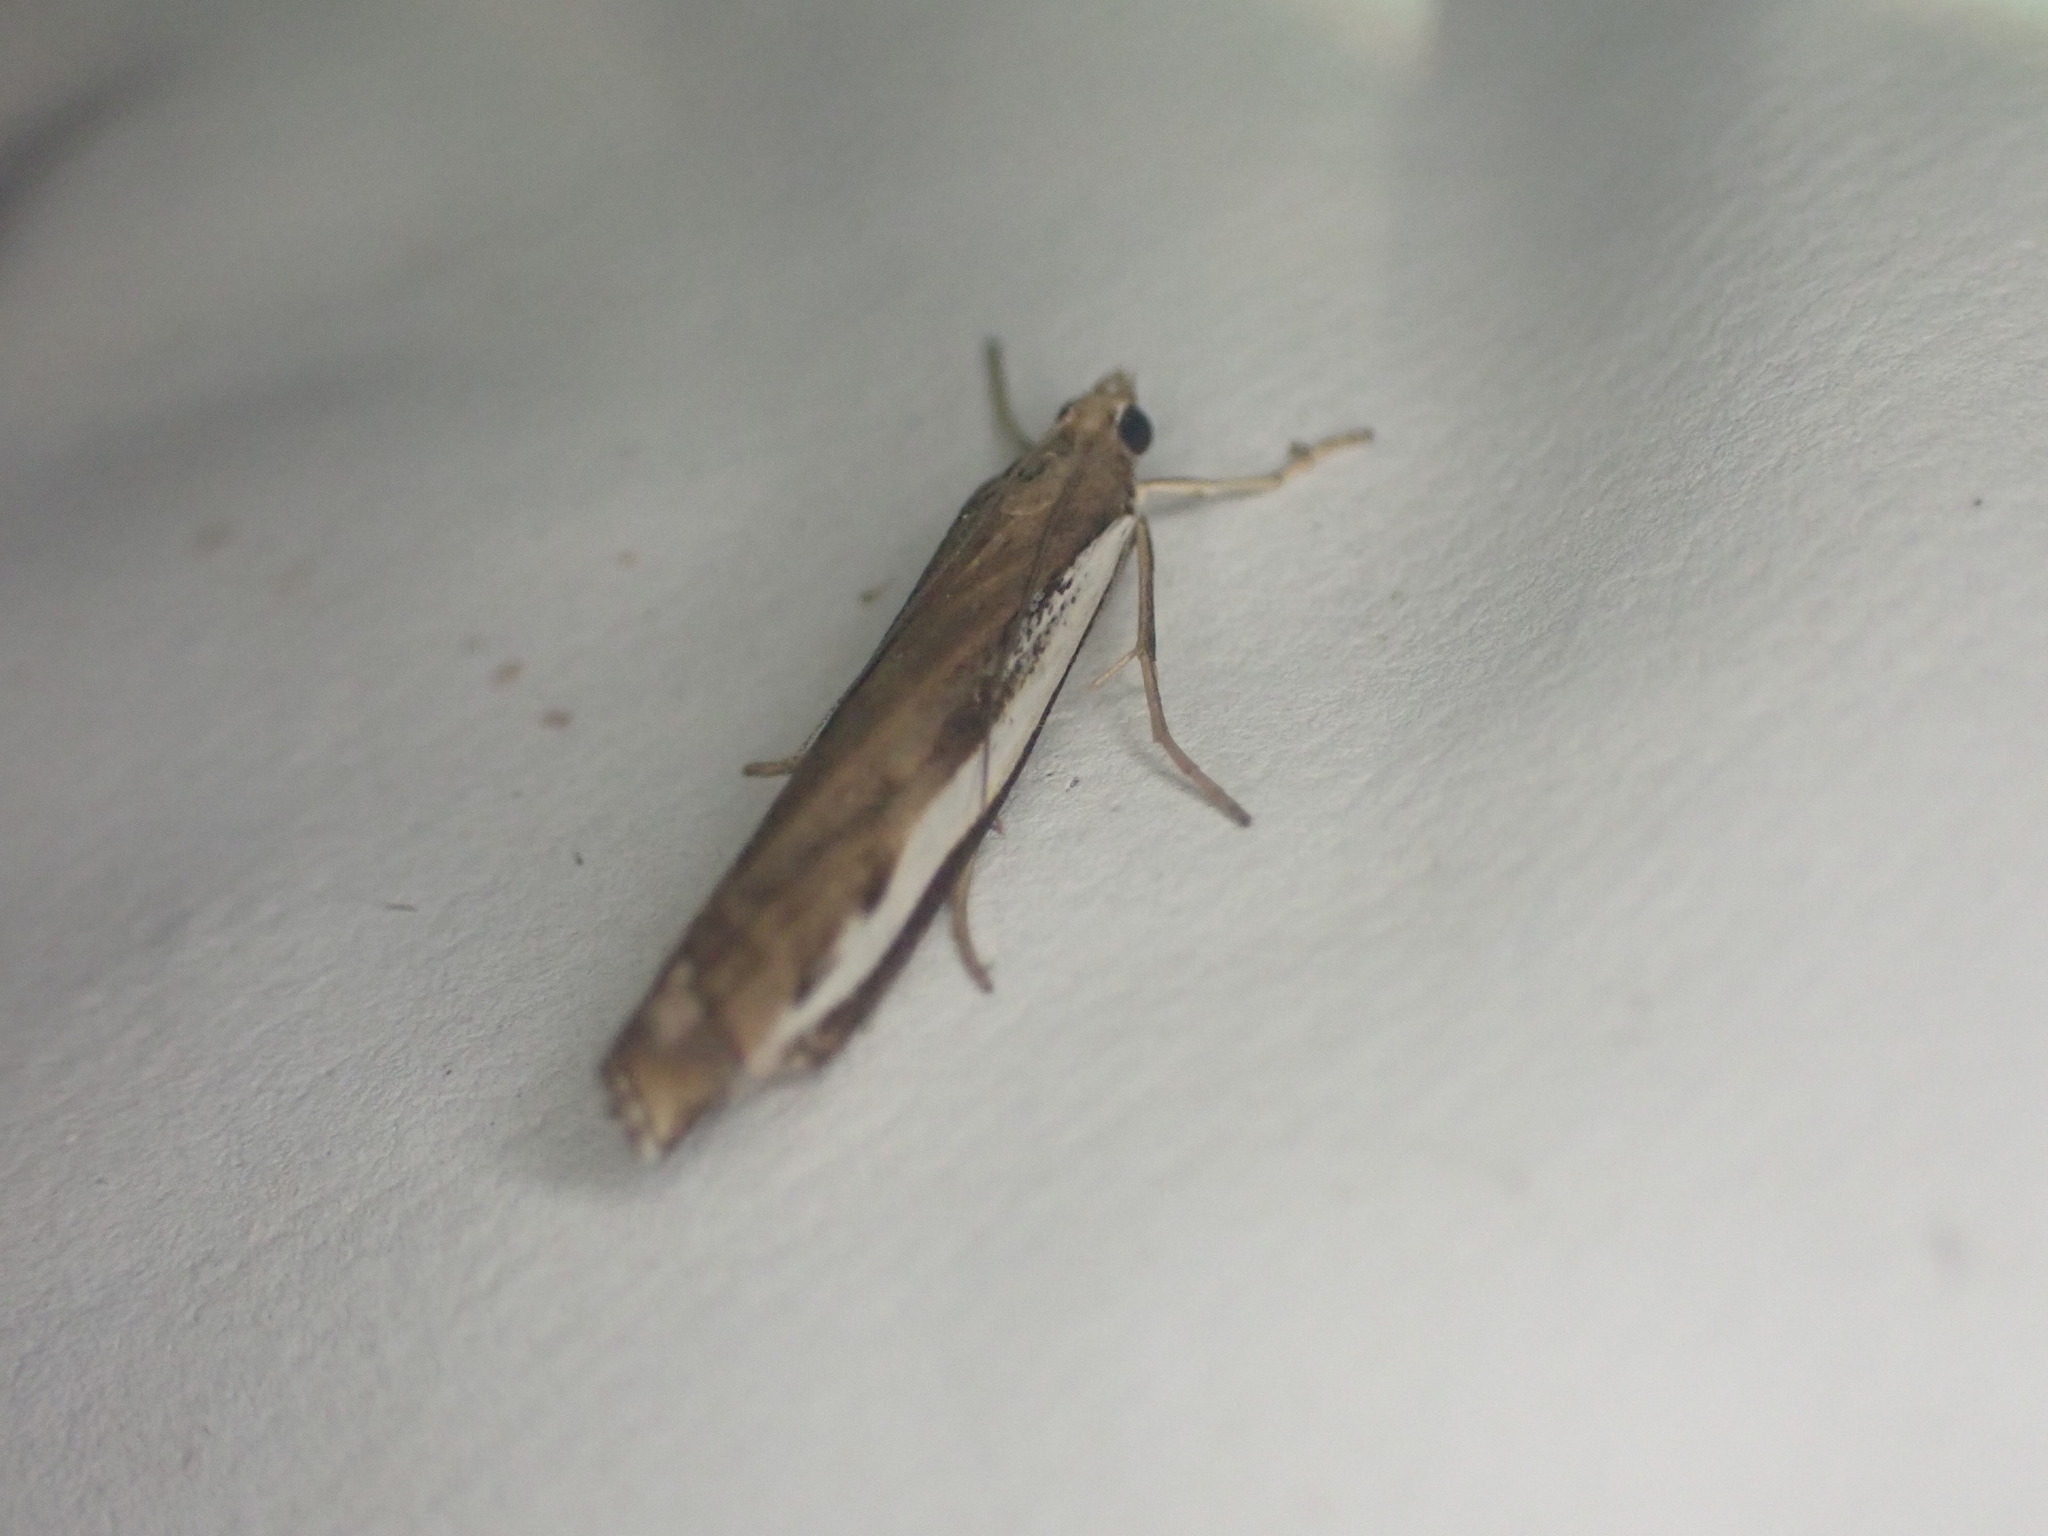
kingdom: Animalia
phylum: Arthropoda
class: Insecta
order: Lepidoptera
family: Crambidae
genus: Orocrambus
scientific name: Orocrambus flexuosellus
